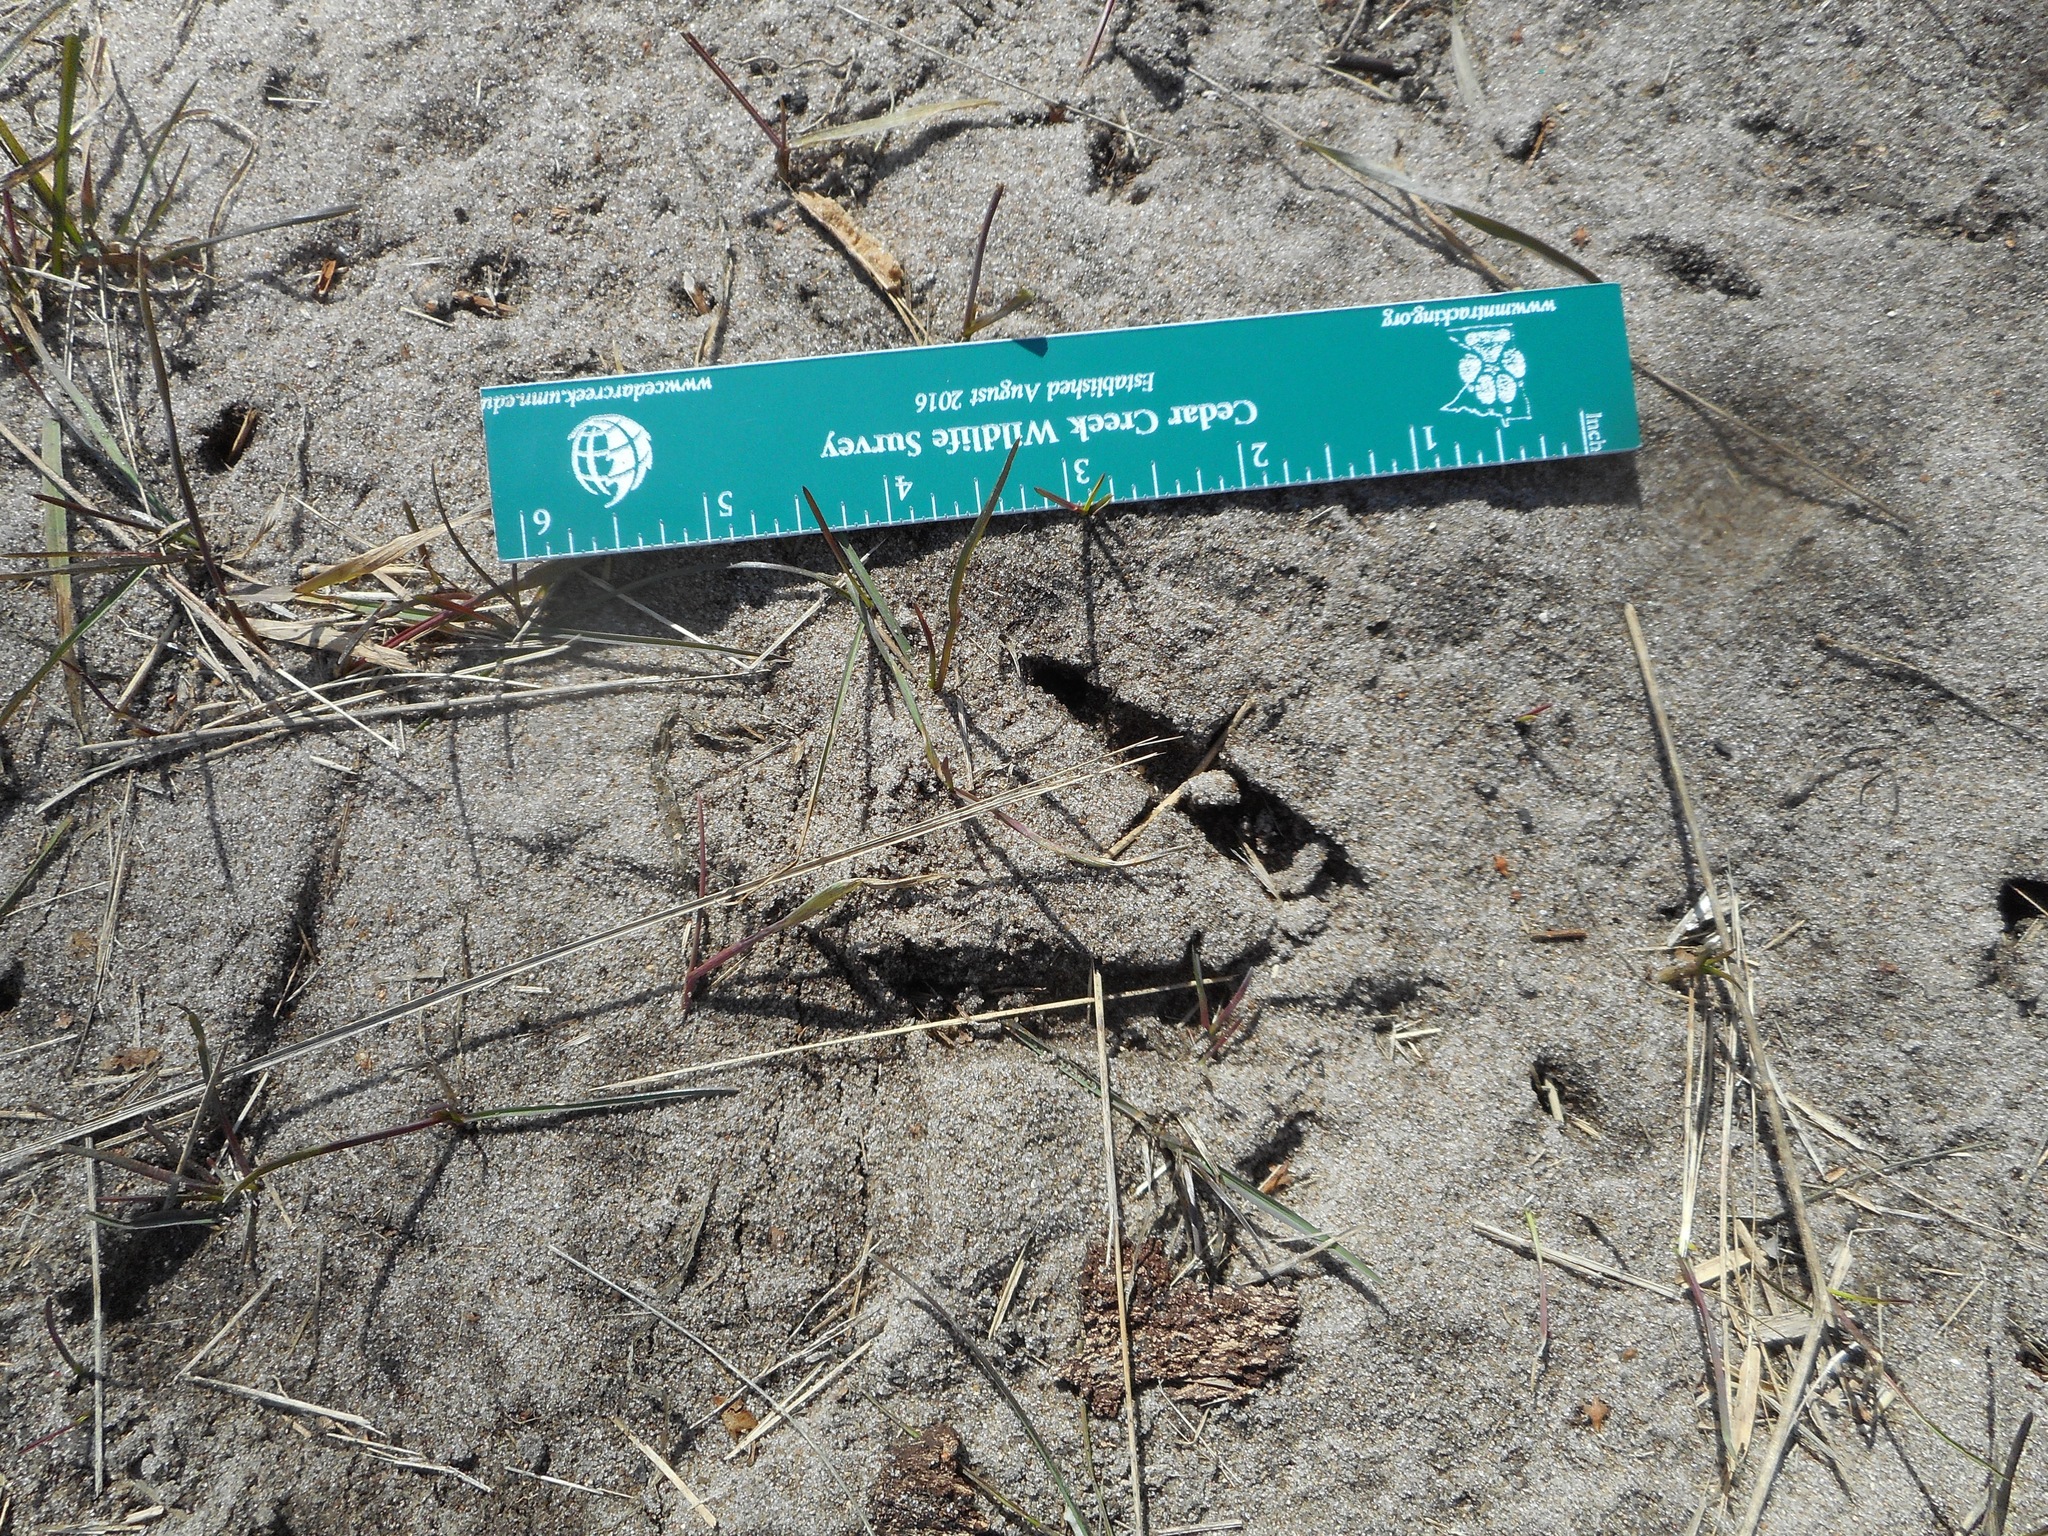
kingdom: Animalia
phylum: Chordata
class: Aves
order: Galliformes
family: Phasianidae
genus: Meleagris
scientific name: Meleagris gallopavo
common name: Wild turkey
